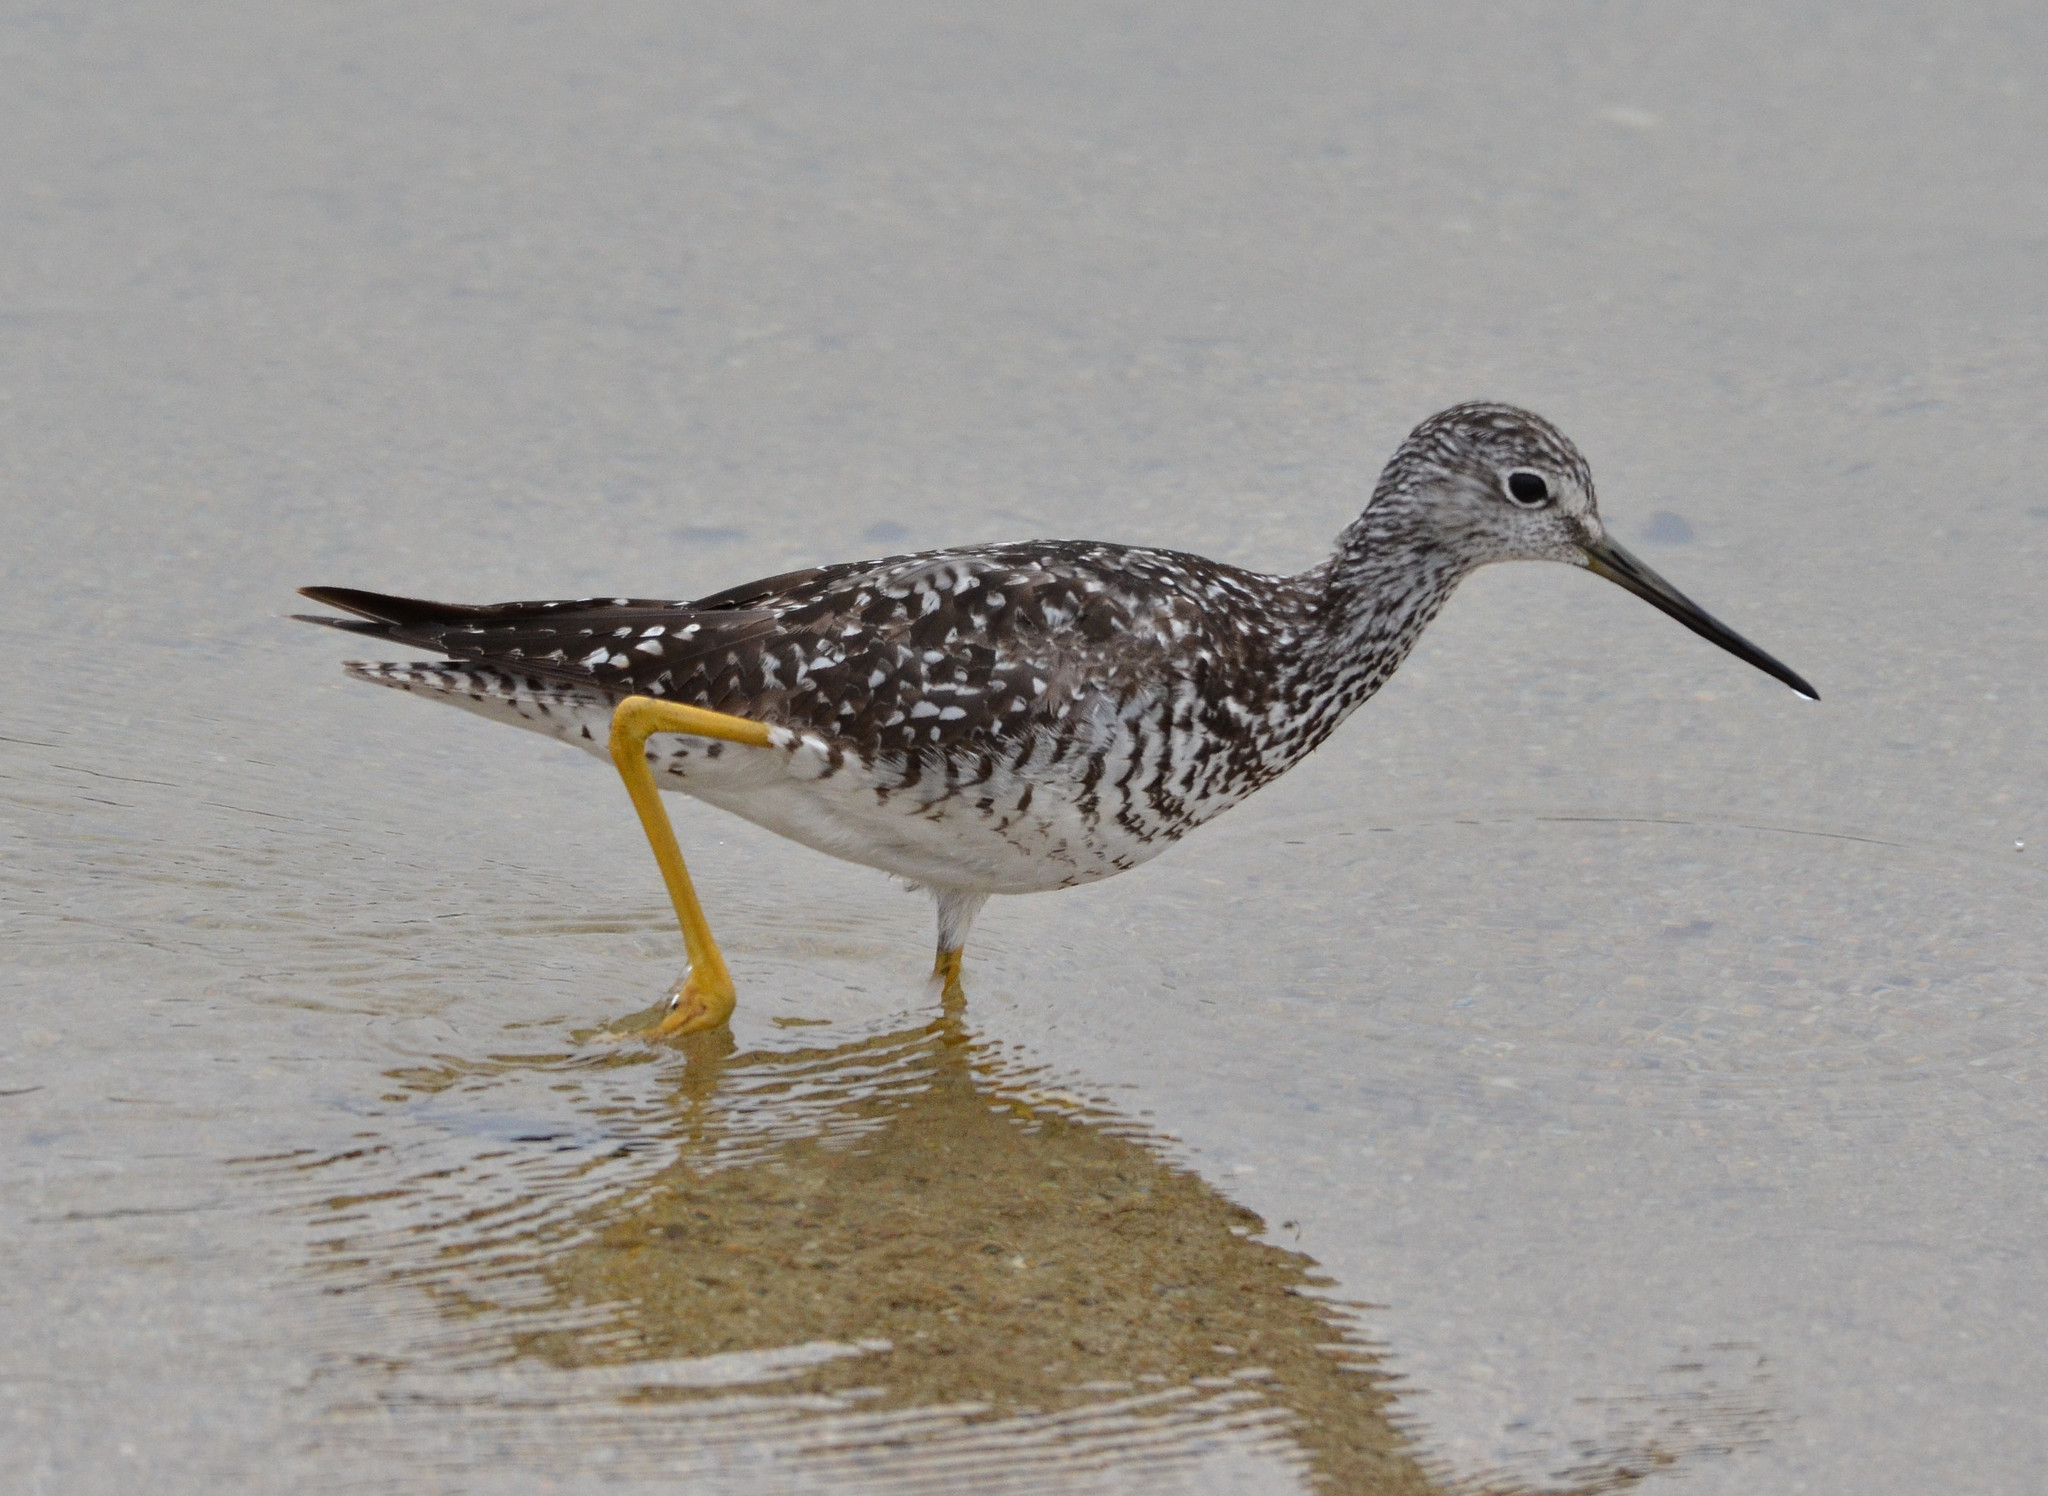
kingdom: Animalia
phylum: Chordata
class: Aves
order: Charadriiformes
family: Scolopacidae
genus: Tringa
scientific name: Tringa melanoleuca
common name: Greater yellowlegs
